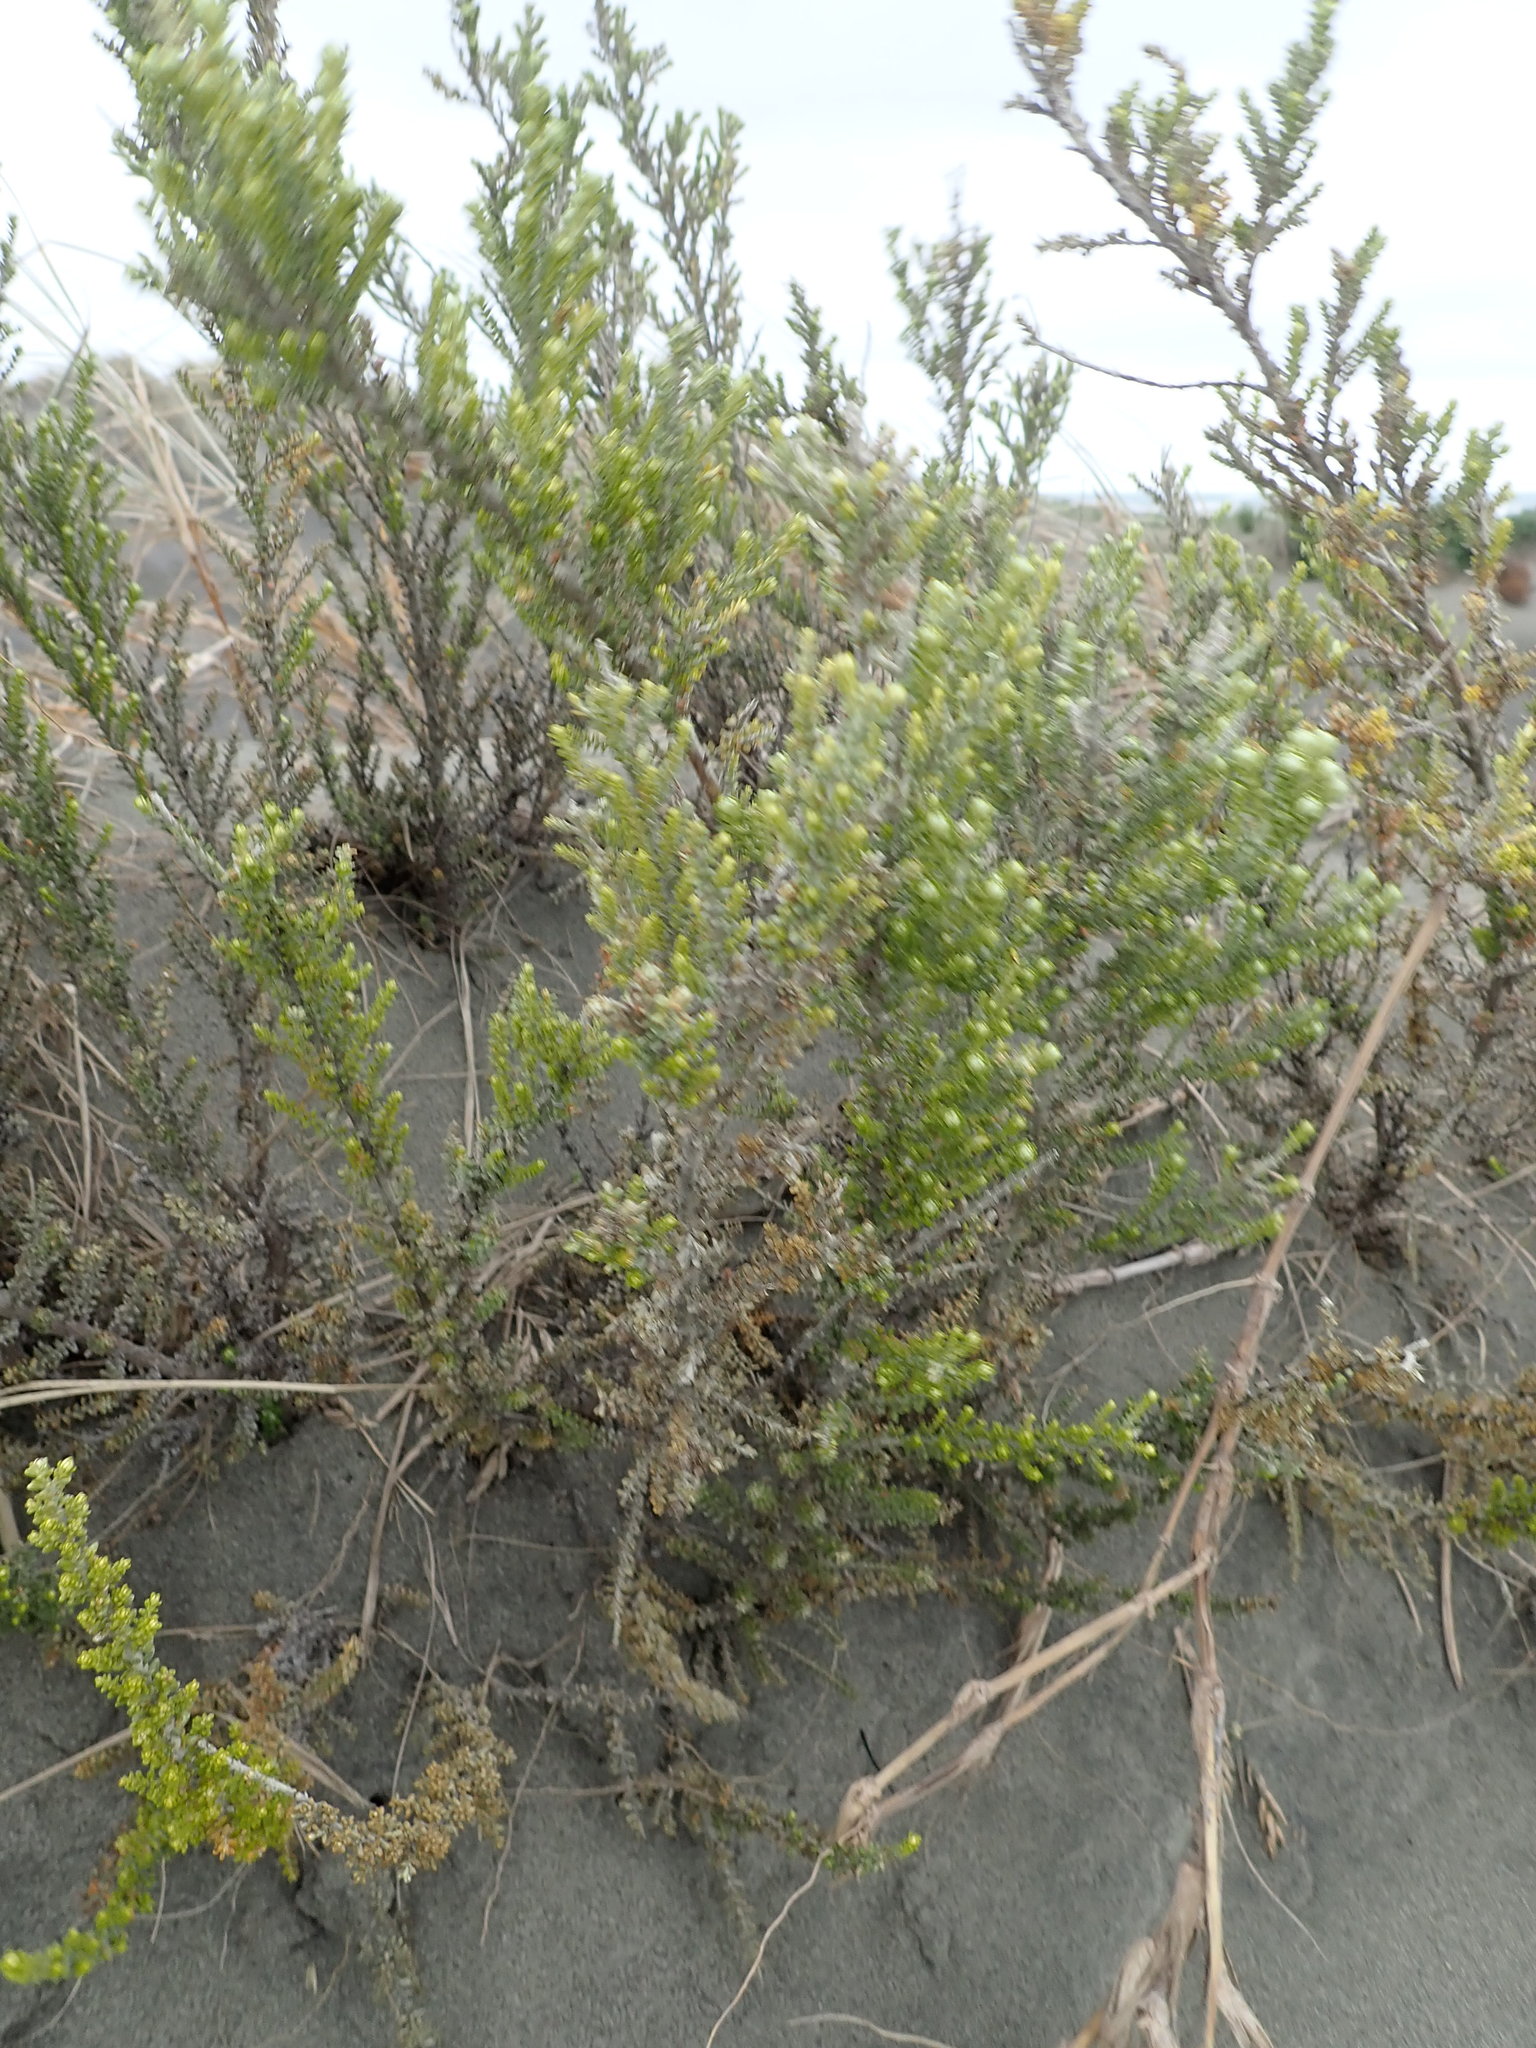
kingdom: Plantae
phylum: Tracheophyta
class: Magnoliopsida
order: Asterales
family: Asteraceae
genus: Ozothamnus
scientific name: Ozothamnus leptophyllus
